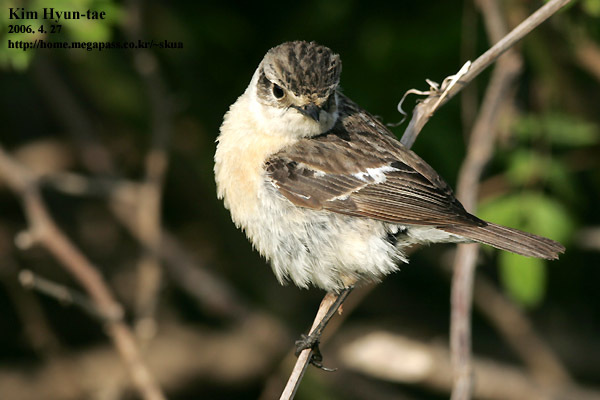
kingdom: Animalia
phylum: Chordata
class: Aves
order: Passeriformes
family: Muscicapidae
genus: Saxicola
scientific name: Saxicola stejnegeri
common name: Stejneger's stonechat
